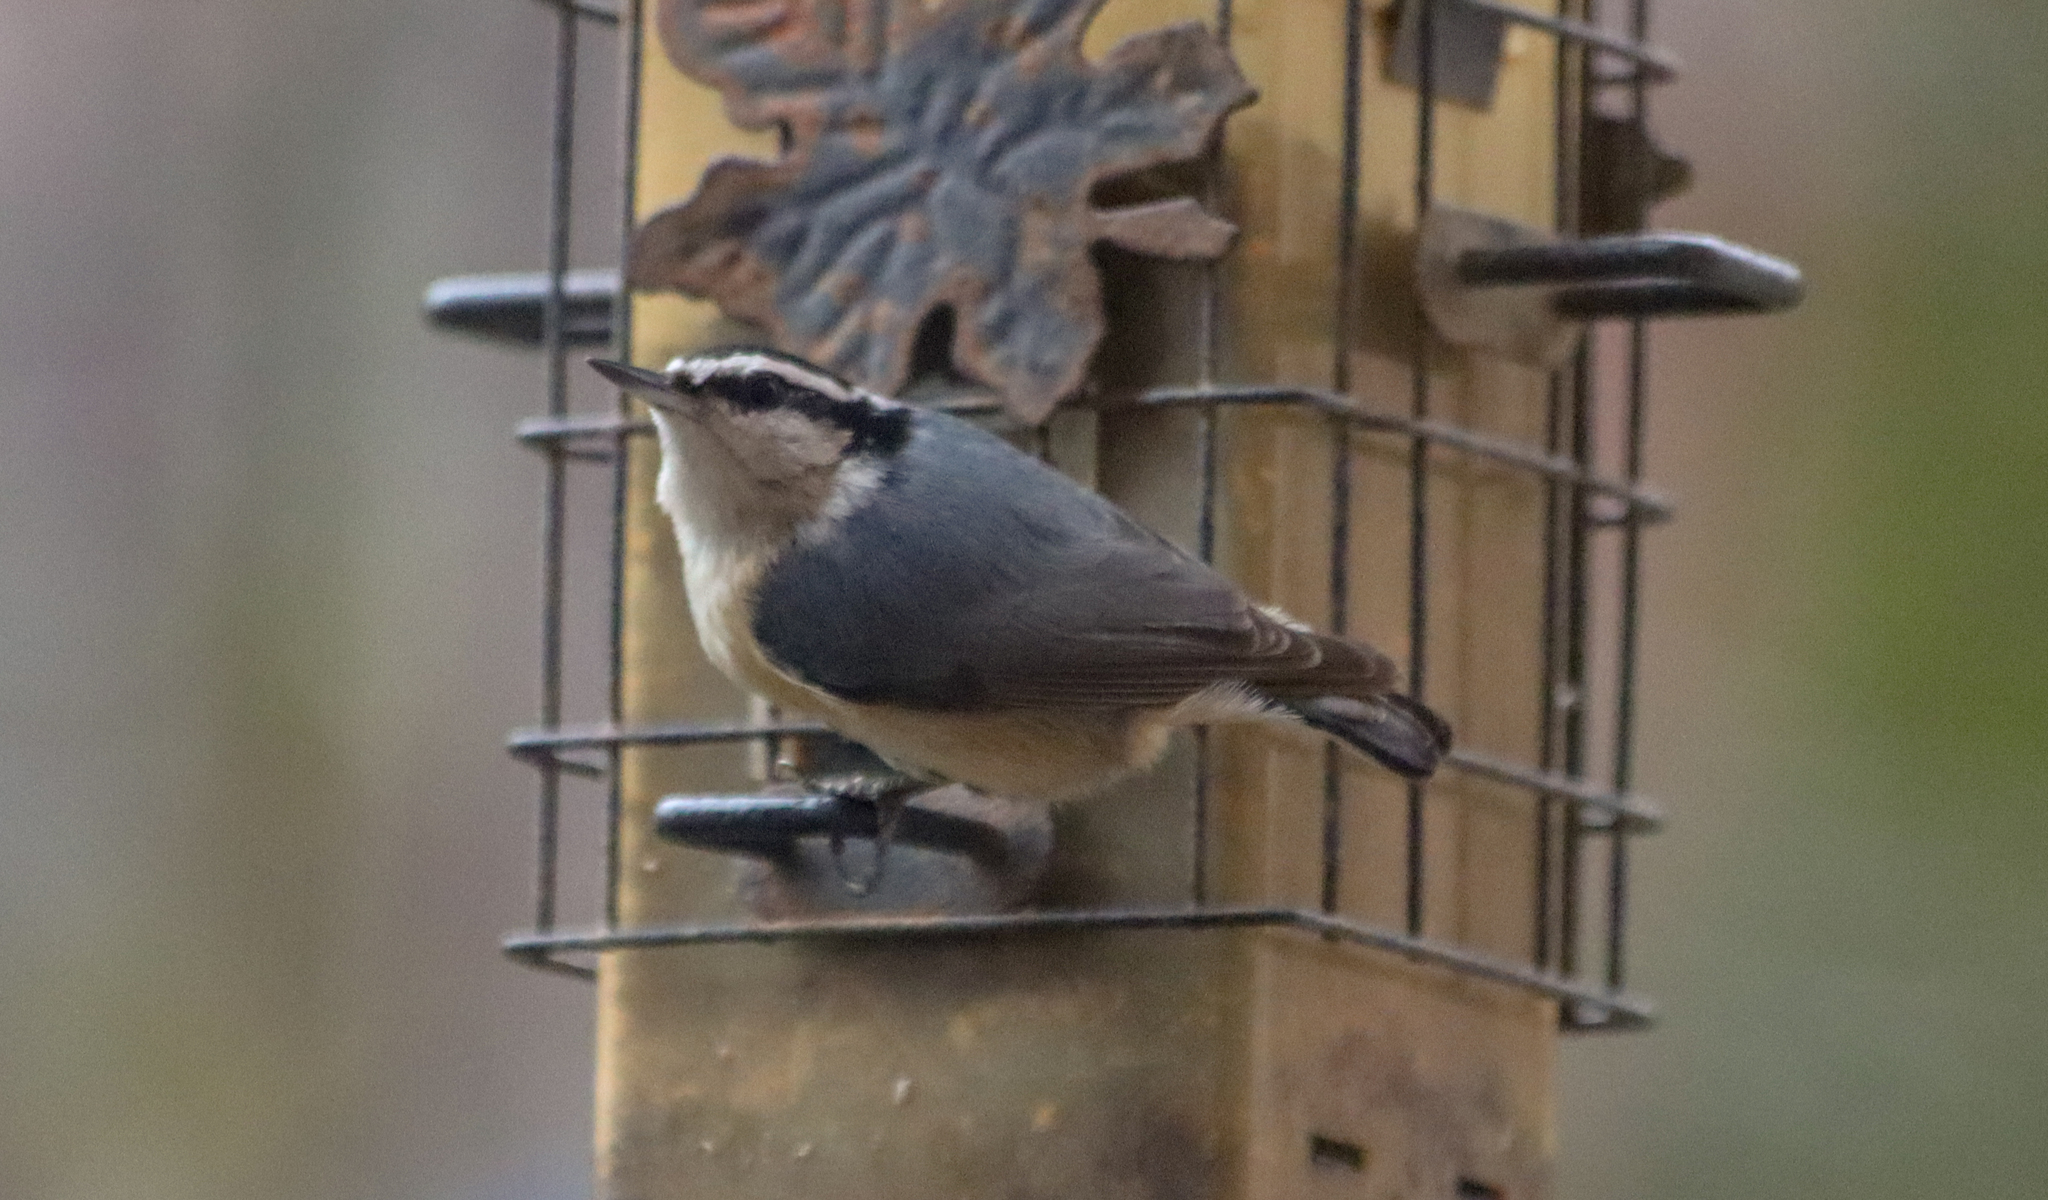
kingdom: Animalia
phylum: Chordata
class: Aves
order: Passeriformes
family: Sittidae
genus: Sitta
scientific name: Sitta canadensis
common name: Red-breasted nuthatch
